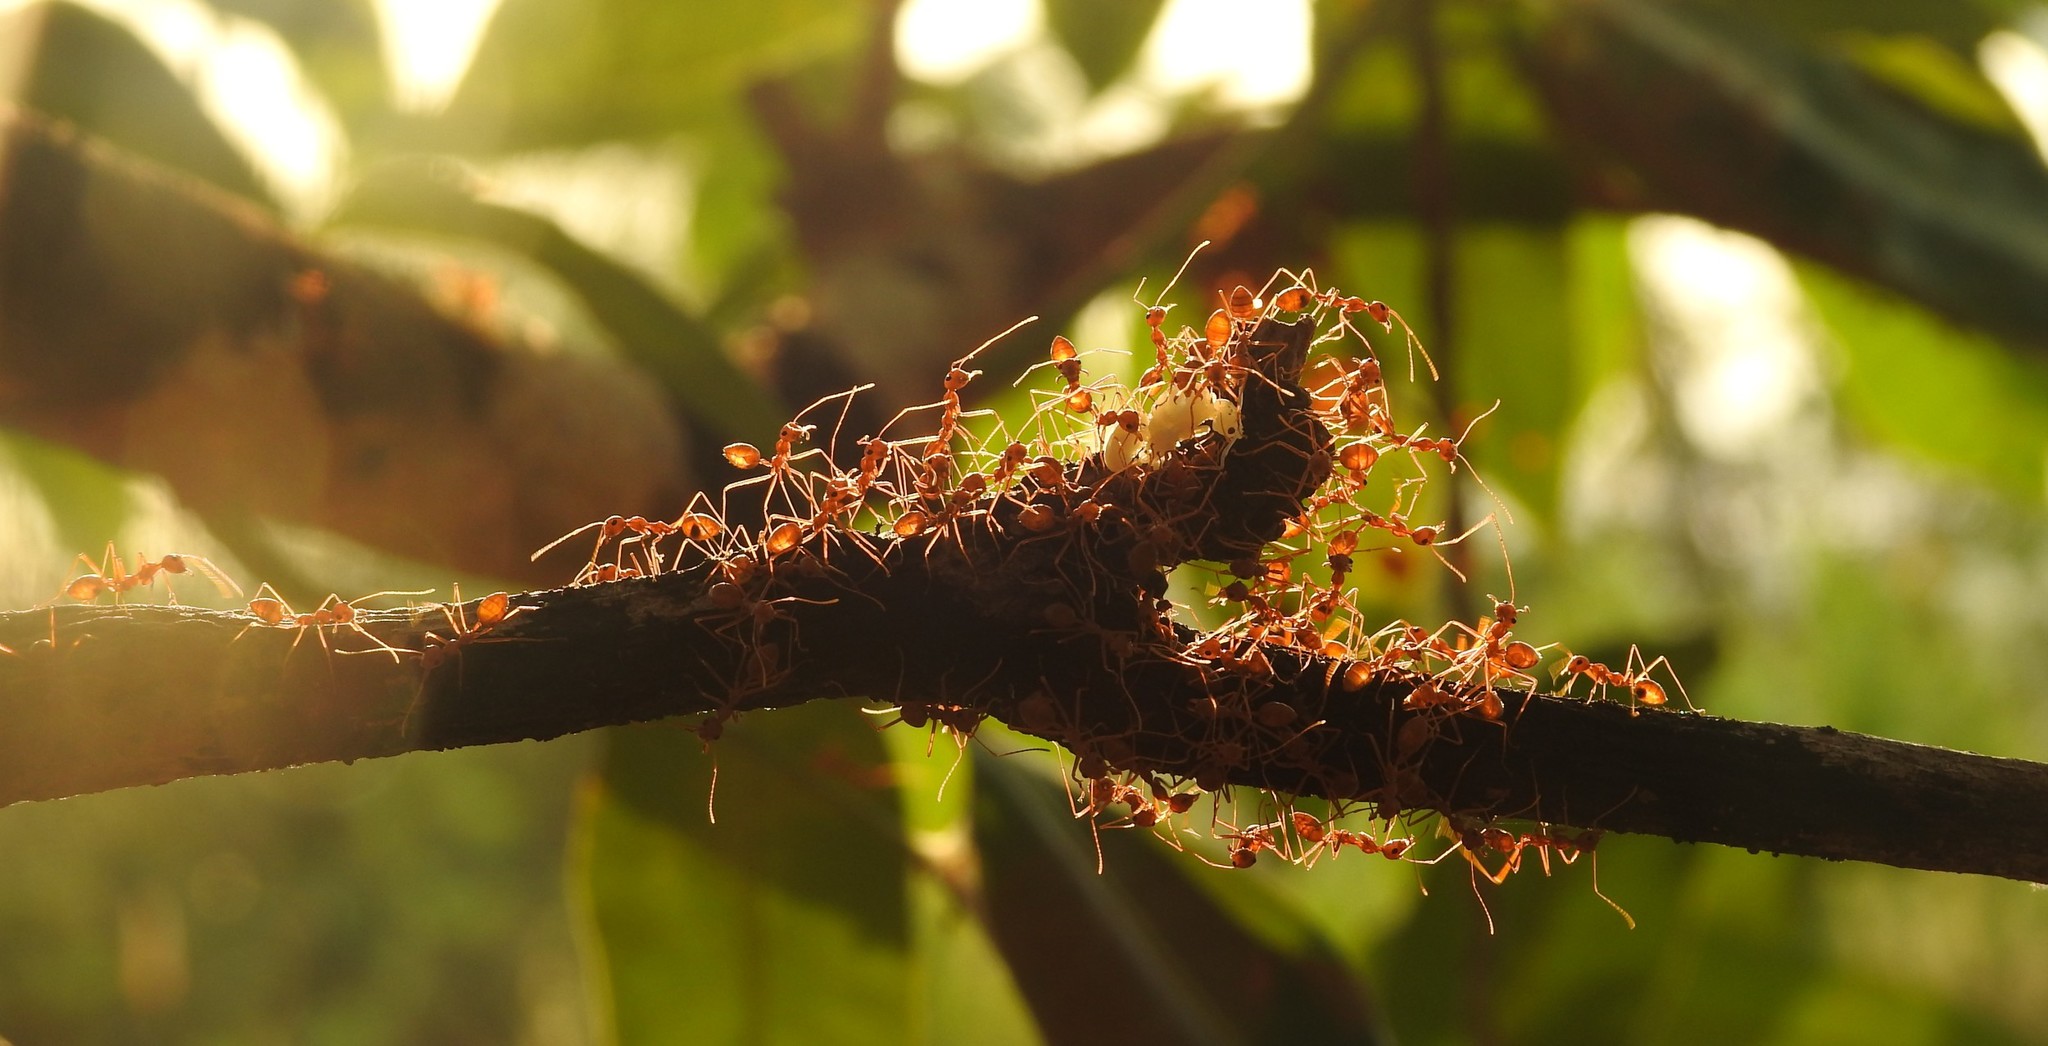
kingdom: Animalia
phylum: Arthropoda
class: Insecta
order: Hymenoptera
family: Formicidae
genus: Oecophylla
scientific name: Oecophylla smaragdina
